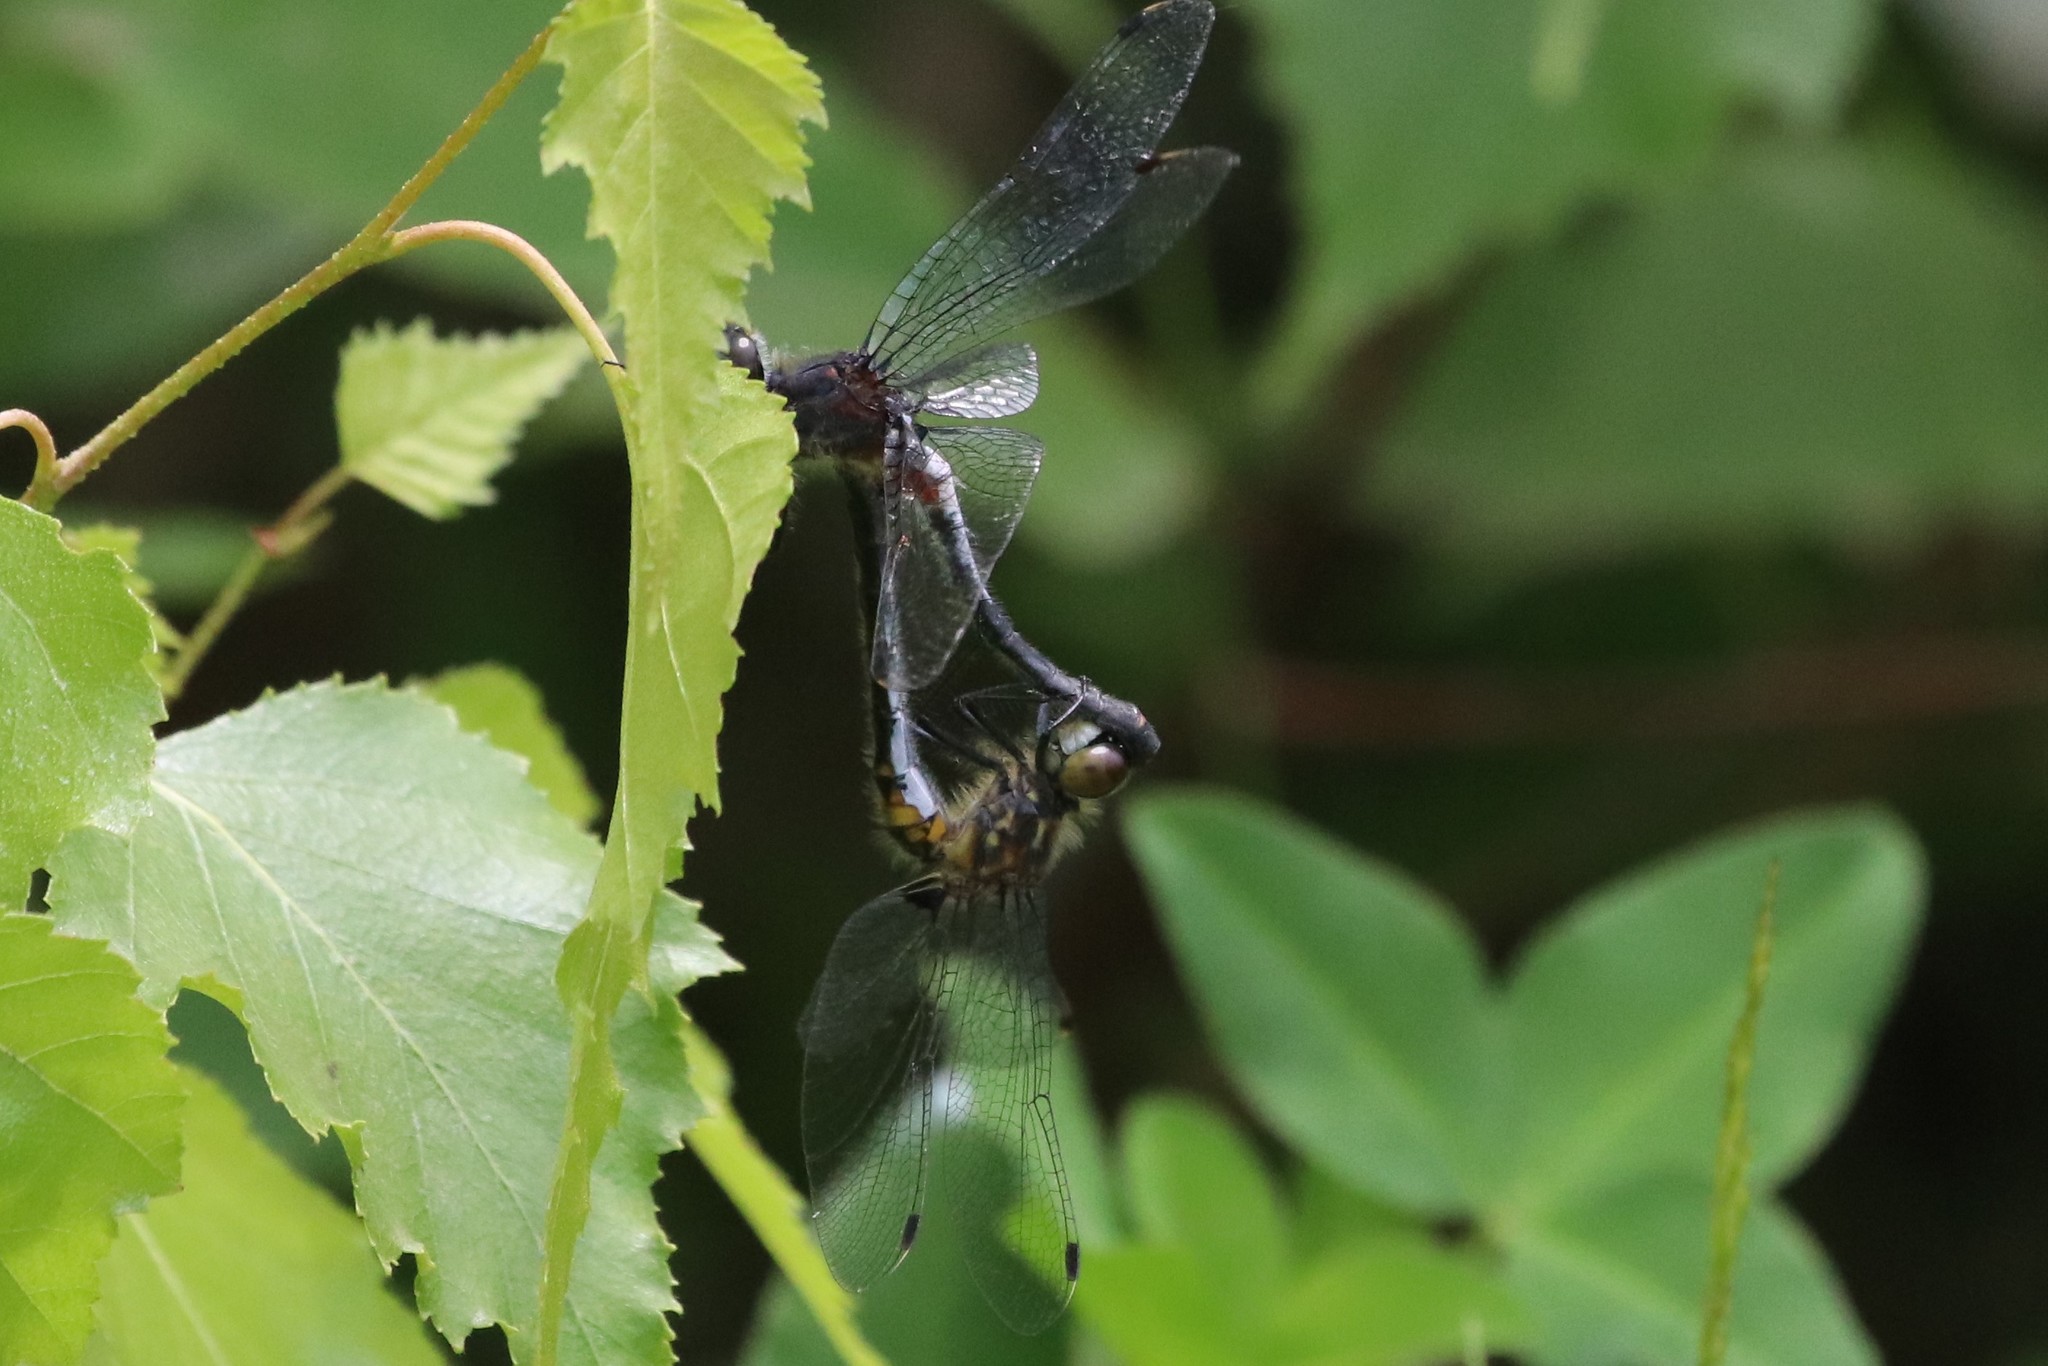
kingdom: Animalia
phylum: Arthropoda
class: Insecta
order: Odonata
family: Libellulidae
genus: Leucorrhinia
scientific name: Leucorrhinia proxima
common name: Belted whiteface
